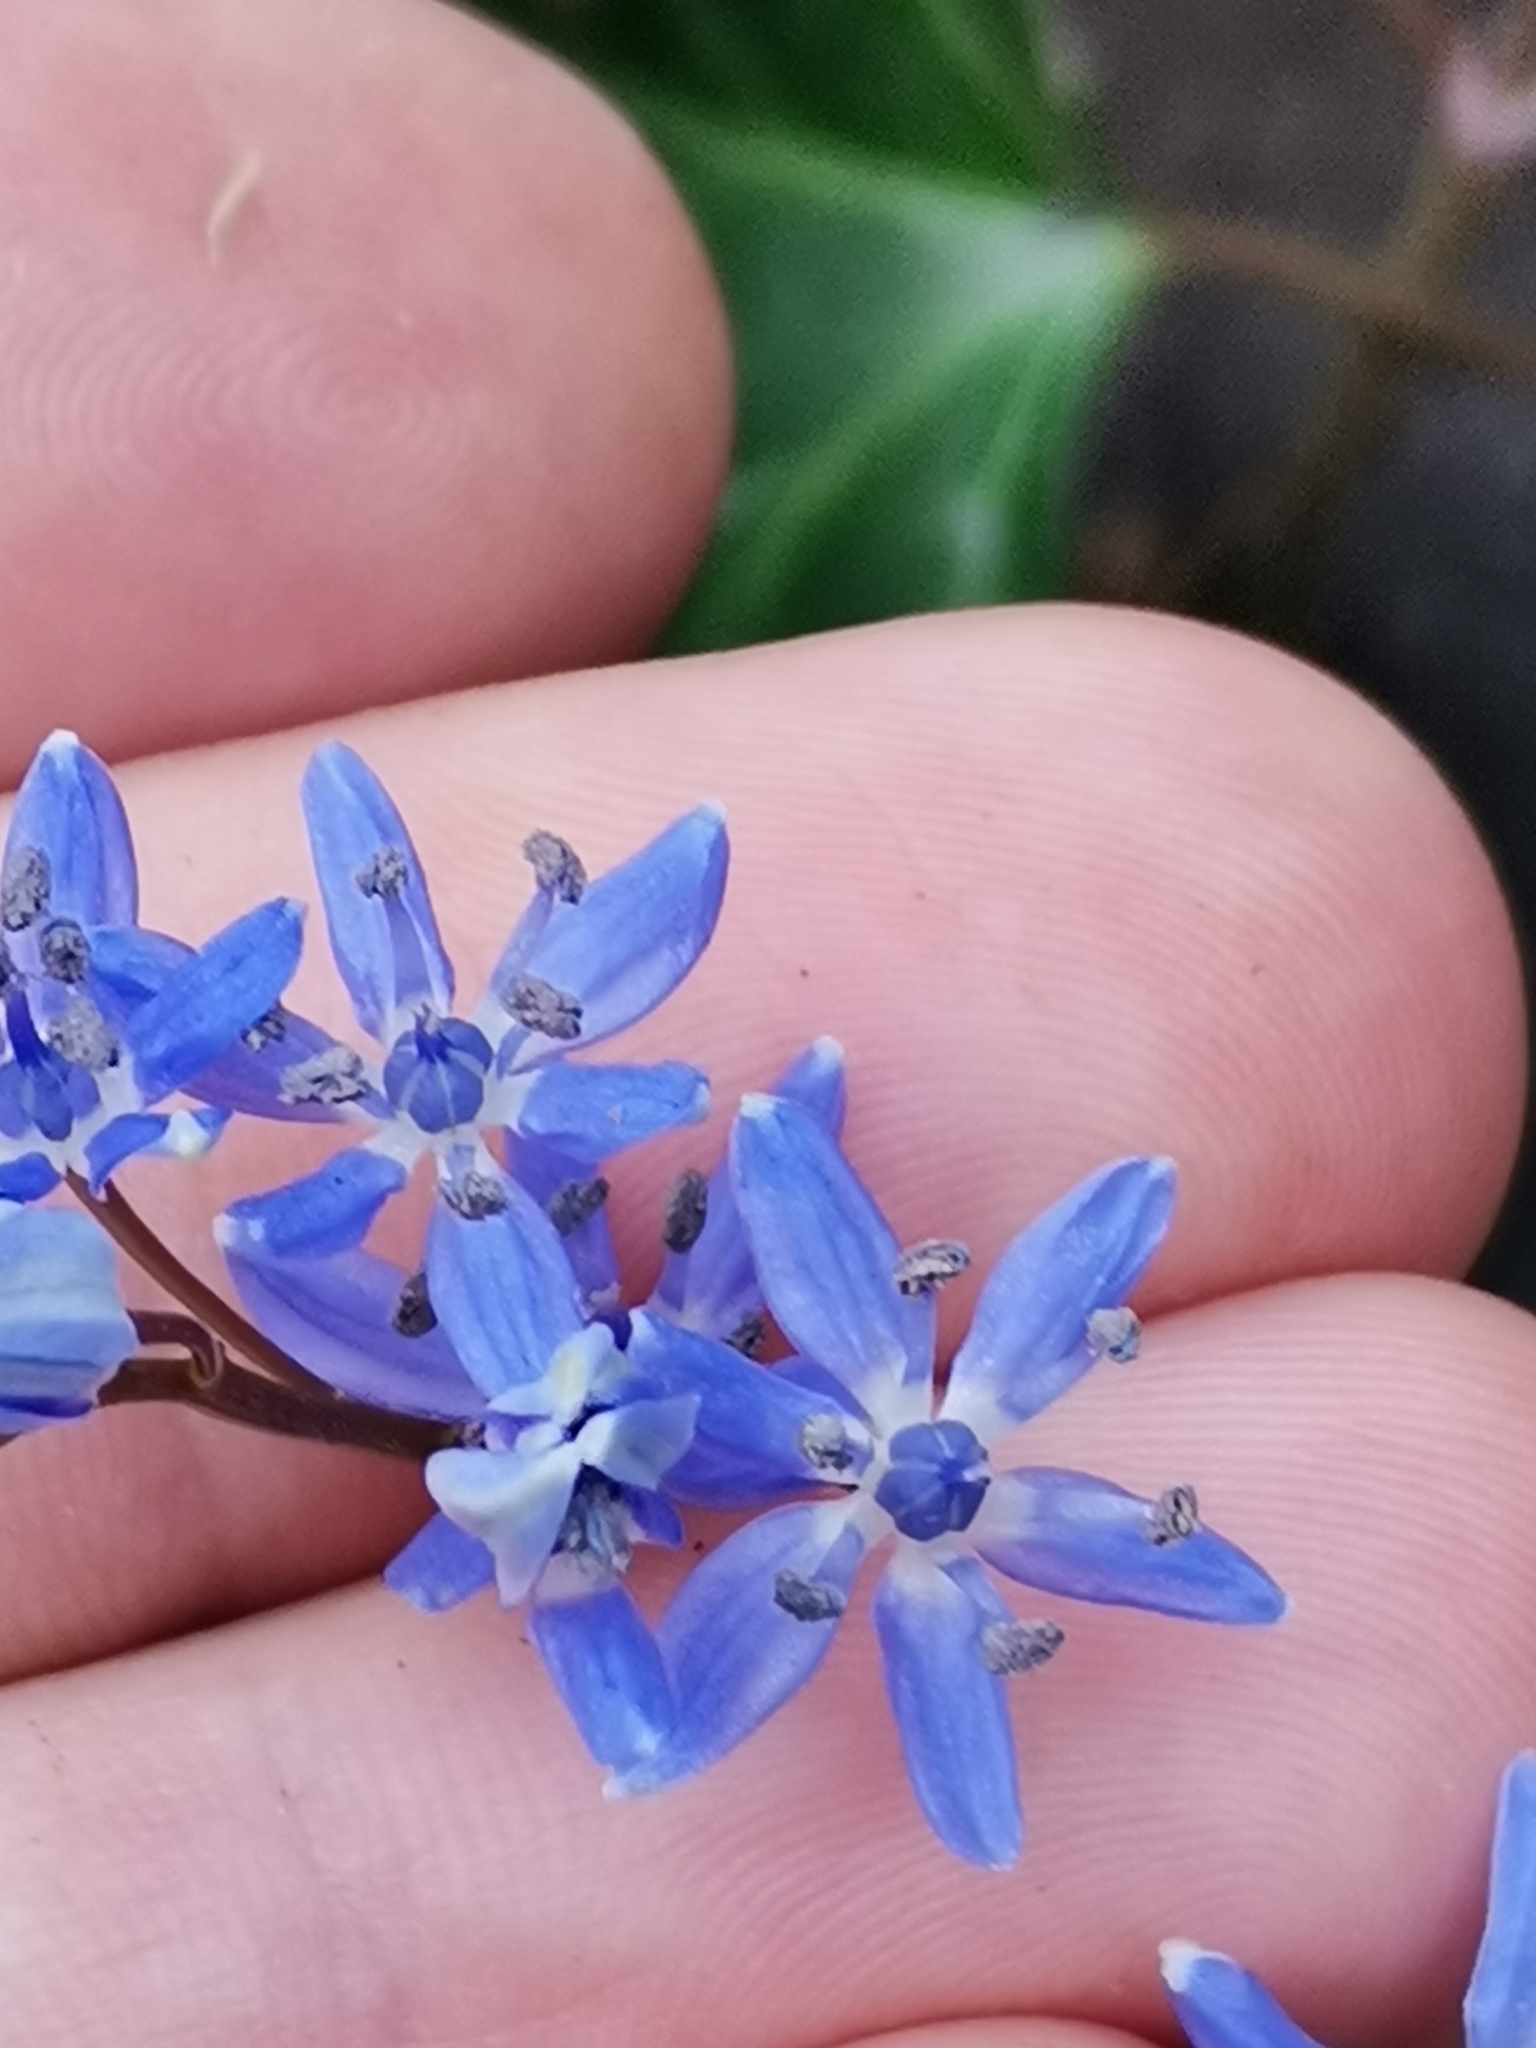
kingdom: Plantae
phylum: Tracheophyta
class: Liliopsida
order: Asparagales
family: Asparagaceae
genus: Scilla
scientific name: Scilla vindobonensis
